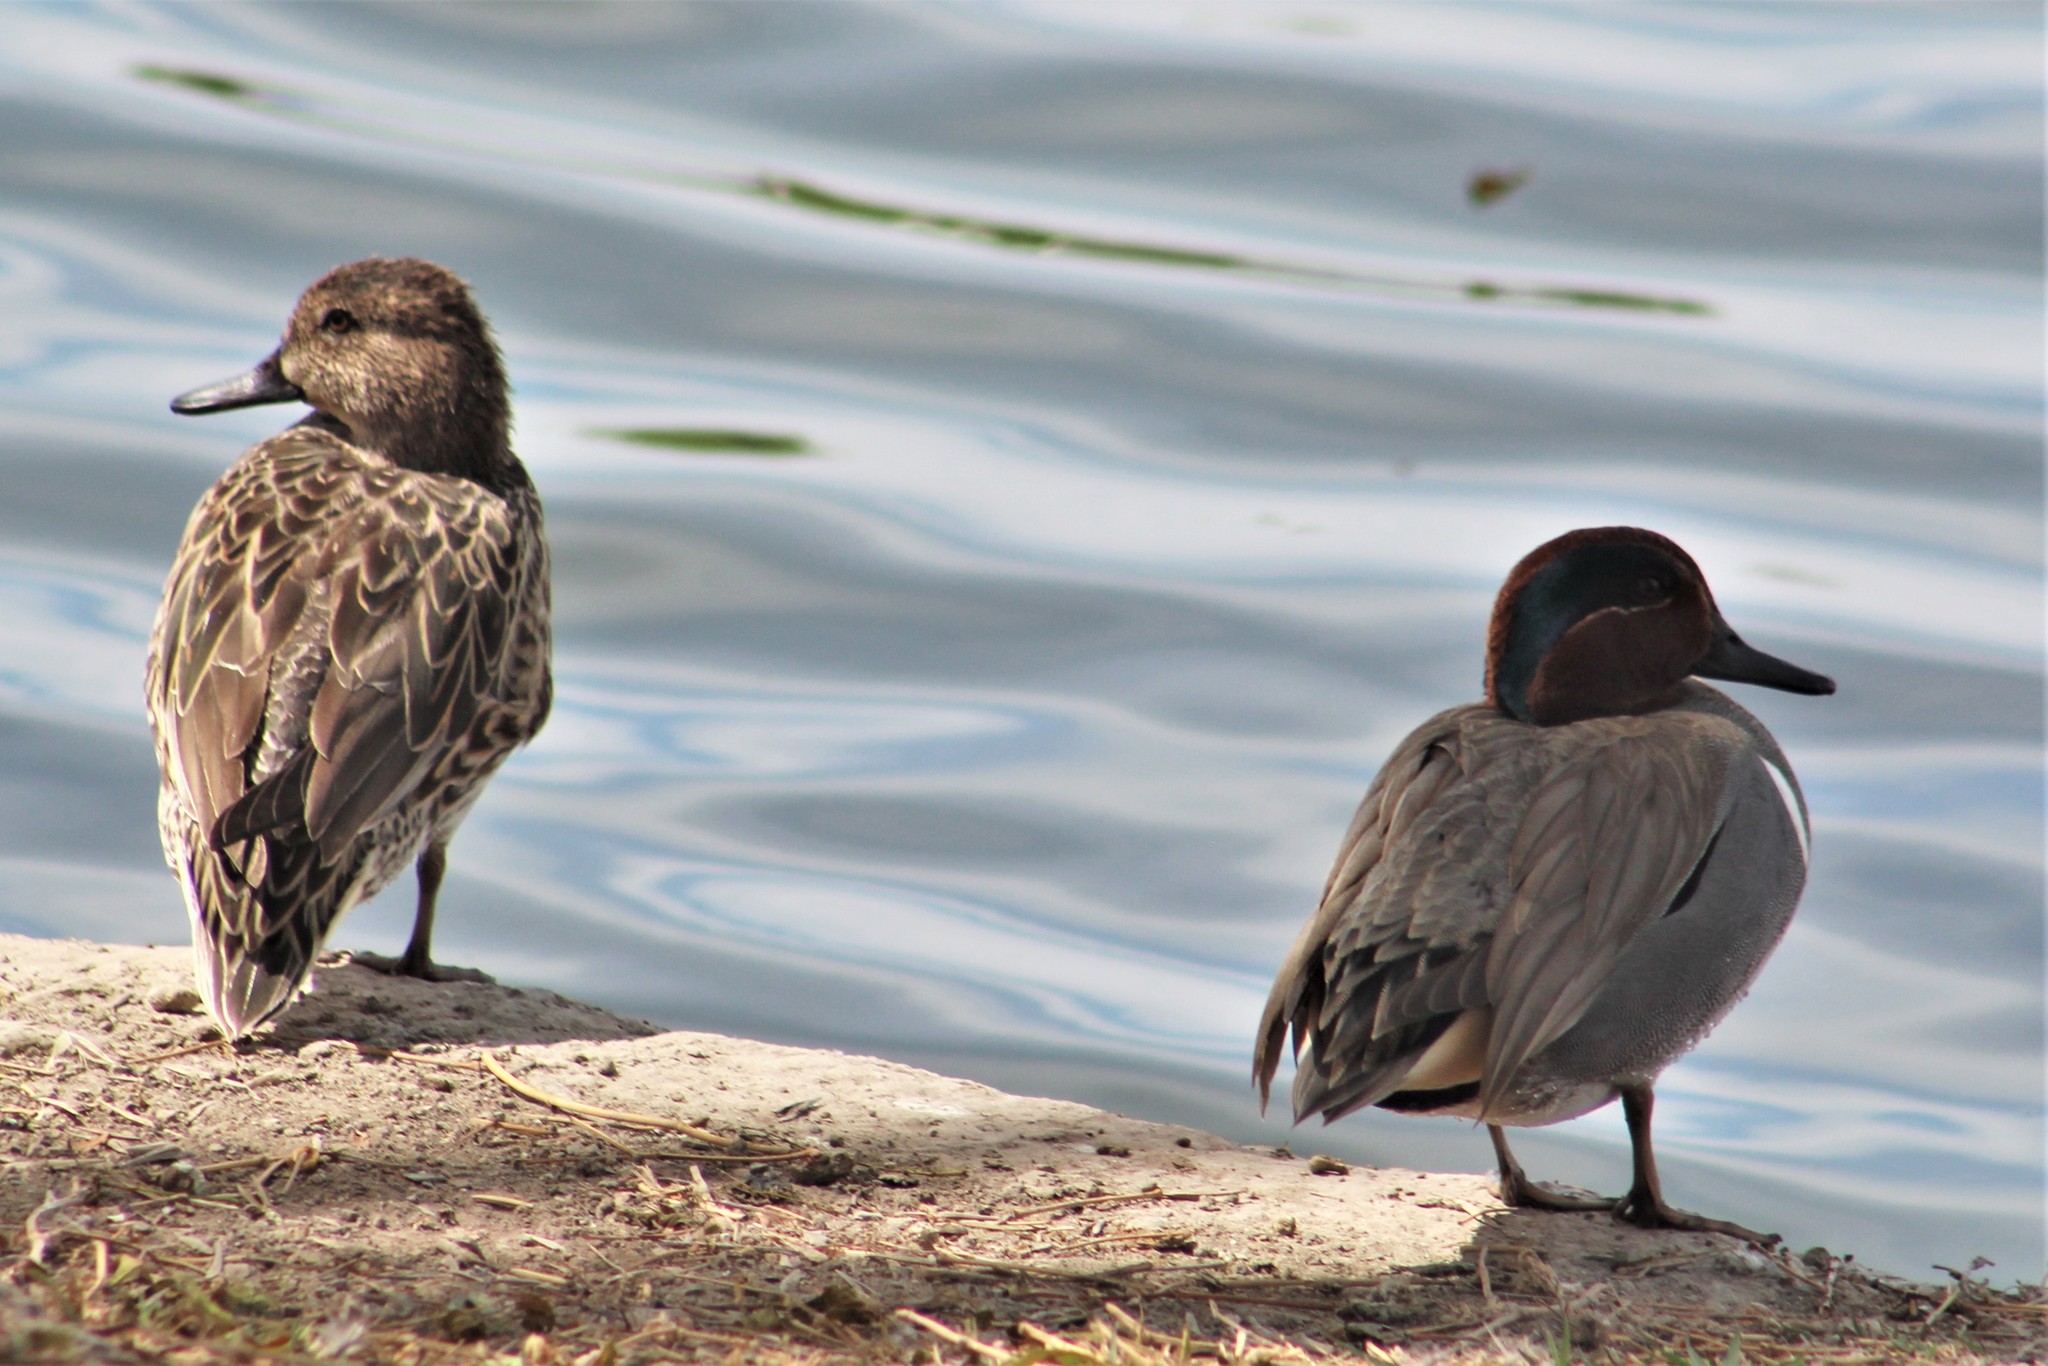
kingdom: Animalia
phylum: Chordata
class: Aves
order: Anseriformes
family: Anatidae
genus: Anas
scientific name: Anas crecca
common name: Eurasian teal
